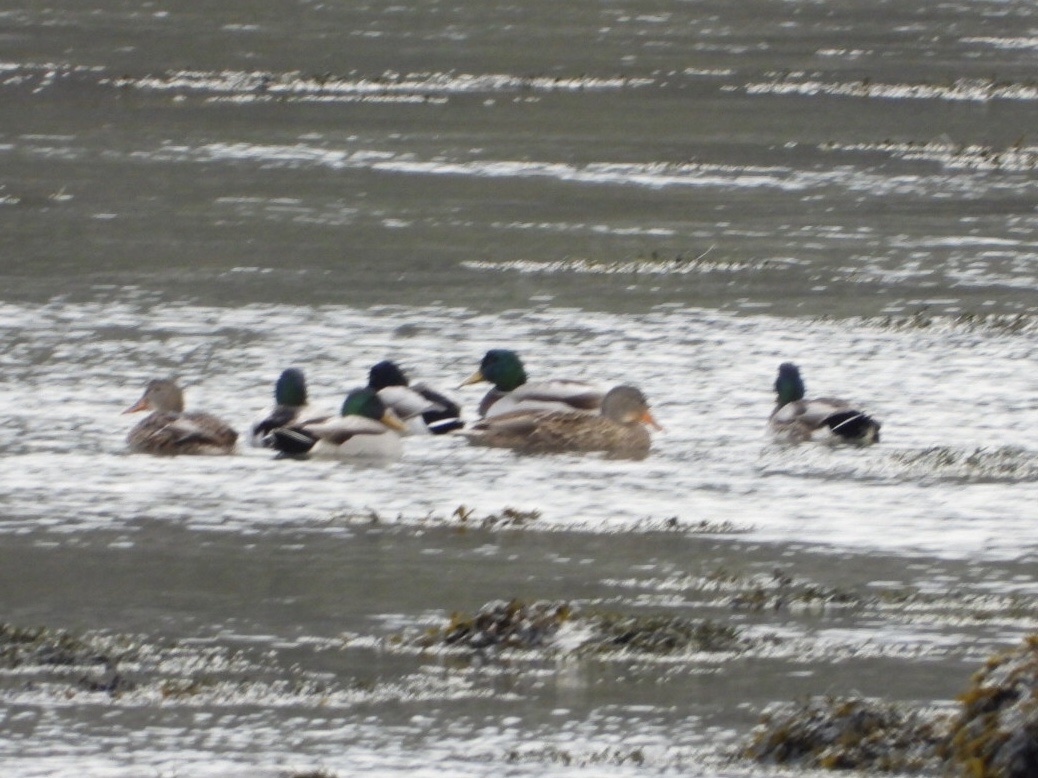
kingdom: Animalia
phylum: Chordata
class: Aves
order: Anseriformes
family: Anatidae
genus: Anas
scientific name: Anas platyrhynchos
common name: Mallard
